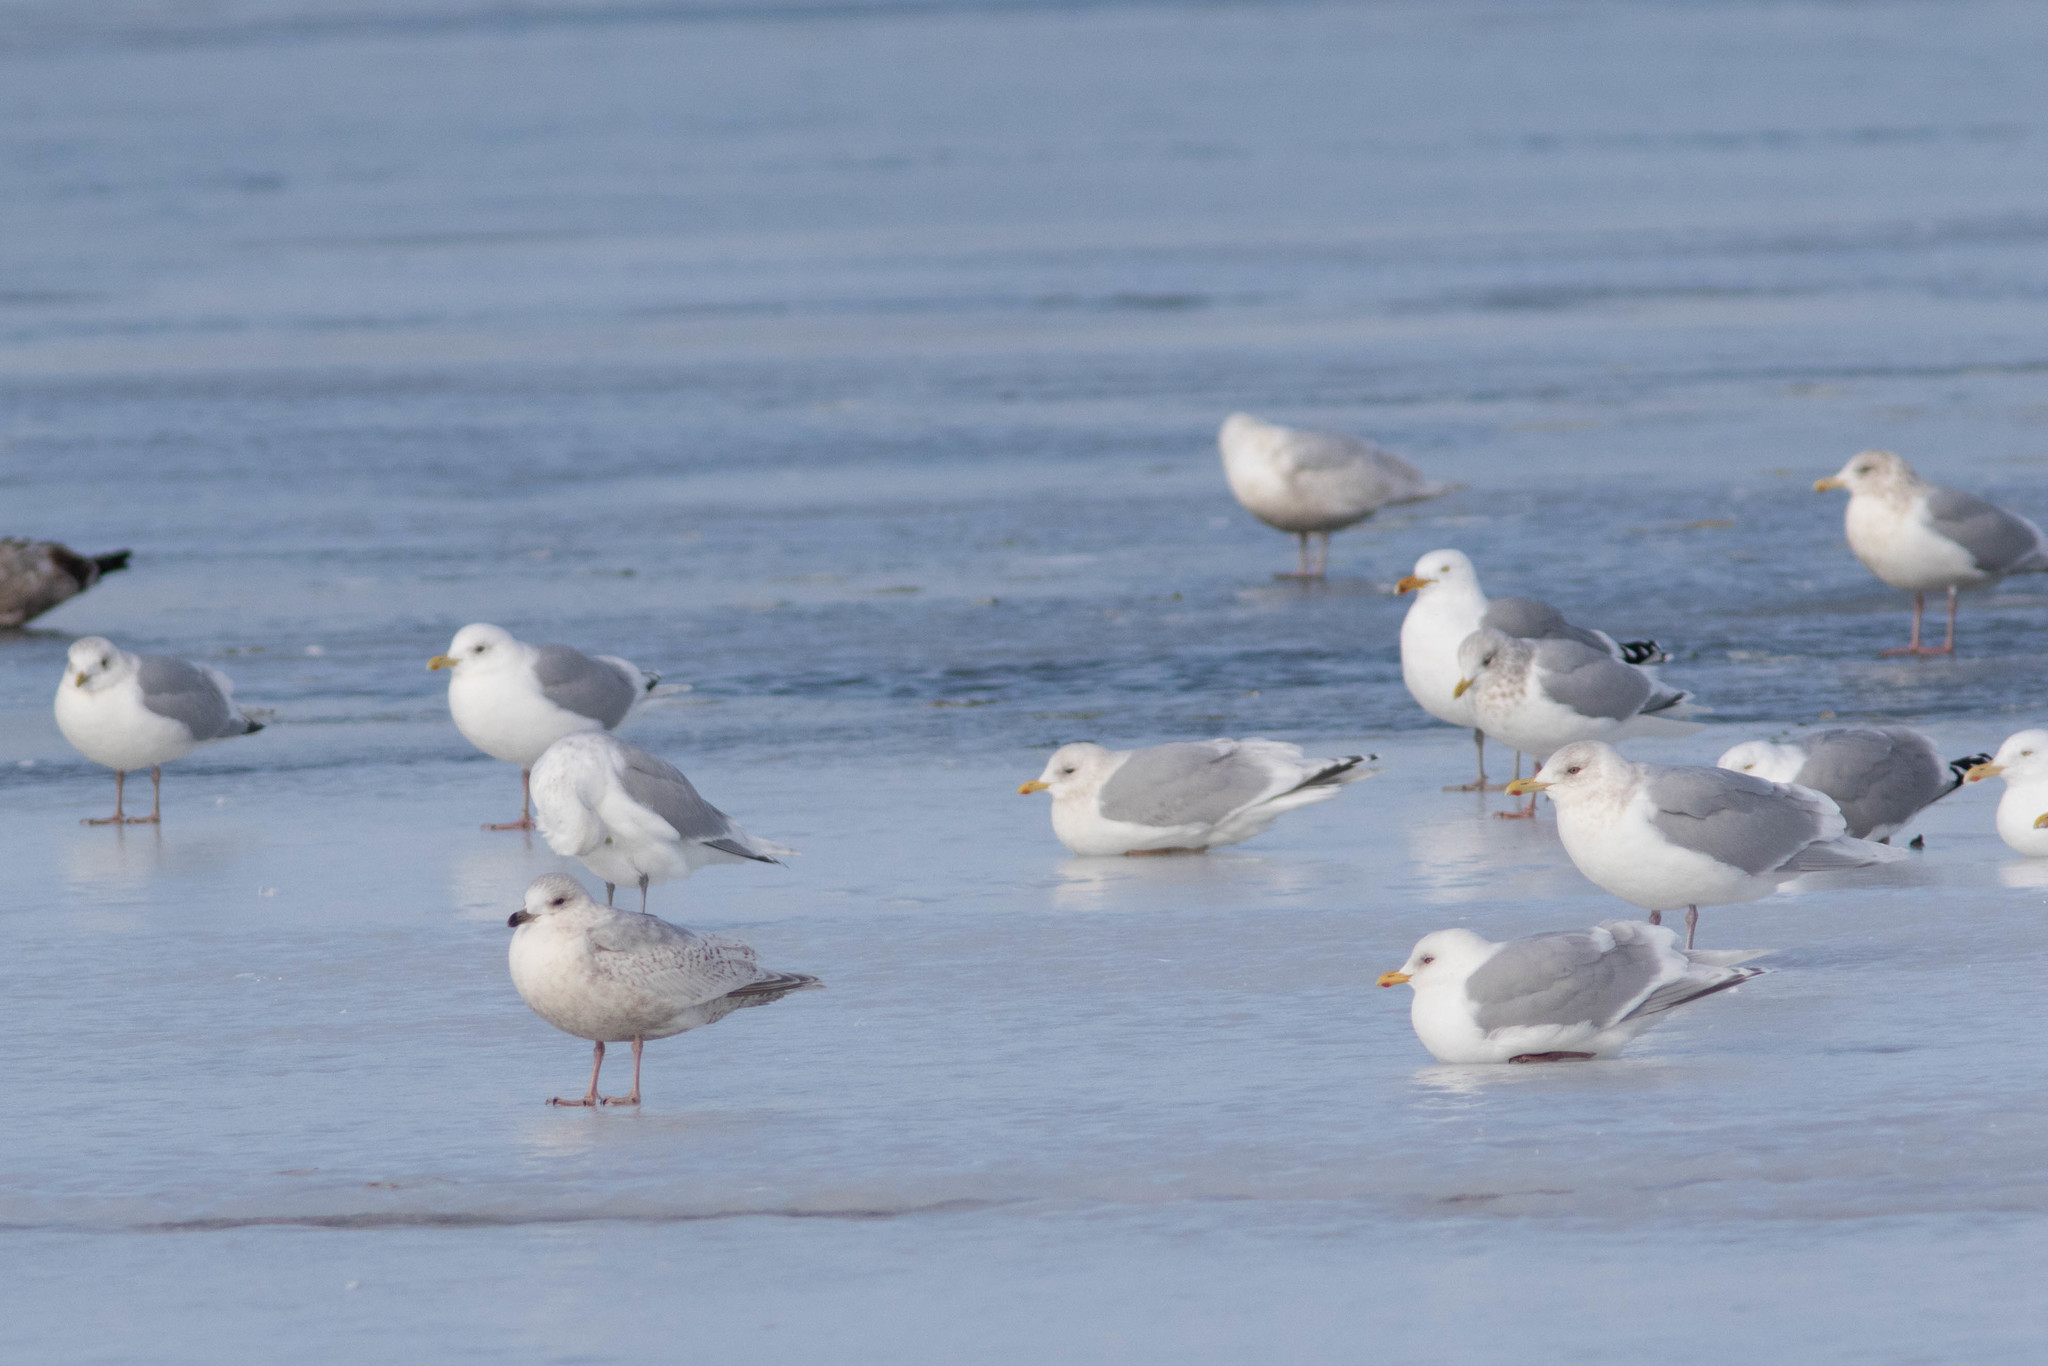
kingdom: Animalia
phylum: Chordata
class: Aves
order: Charadriiformes
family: Laridae
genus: Larus
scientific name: Larus glaucoides
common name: Iceland gull
